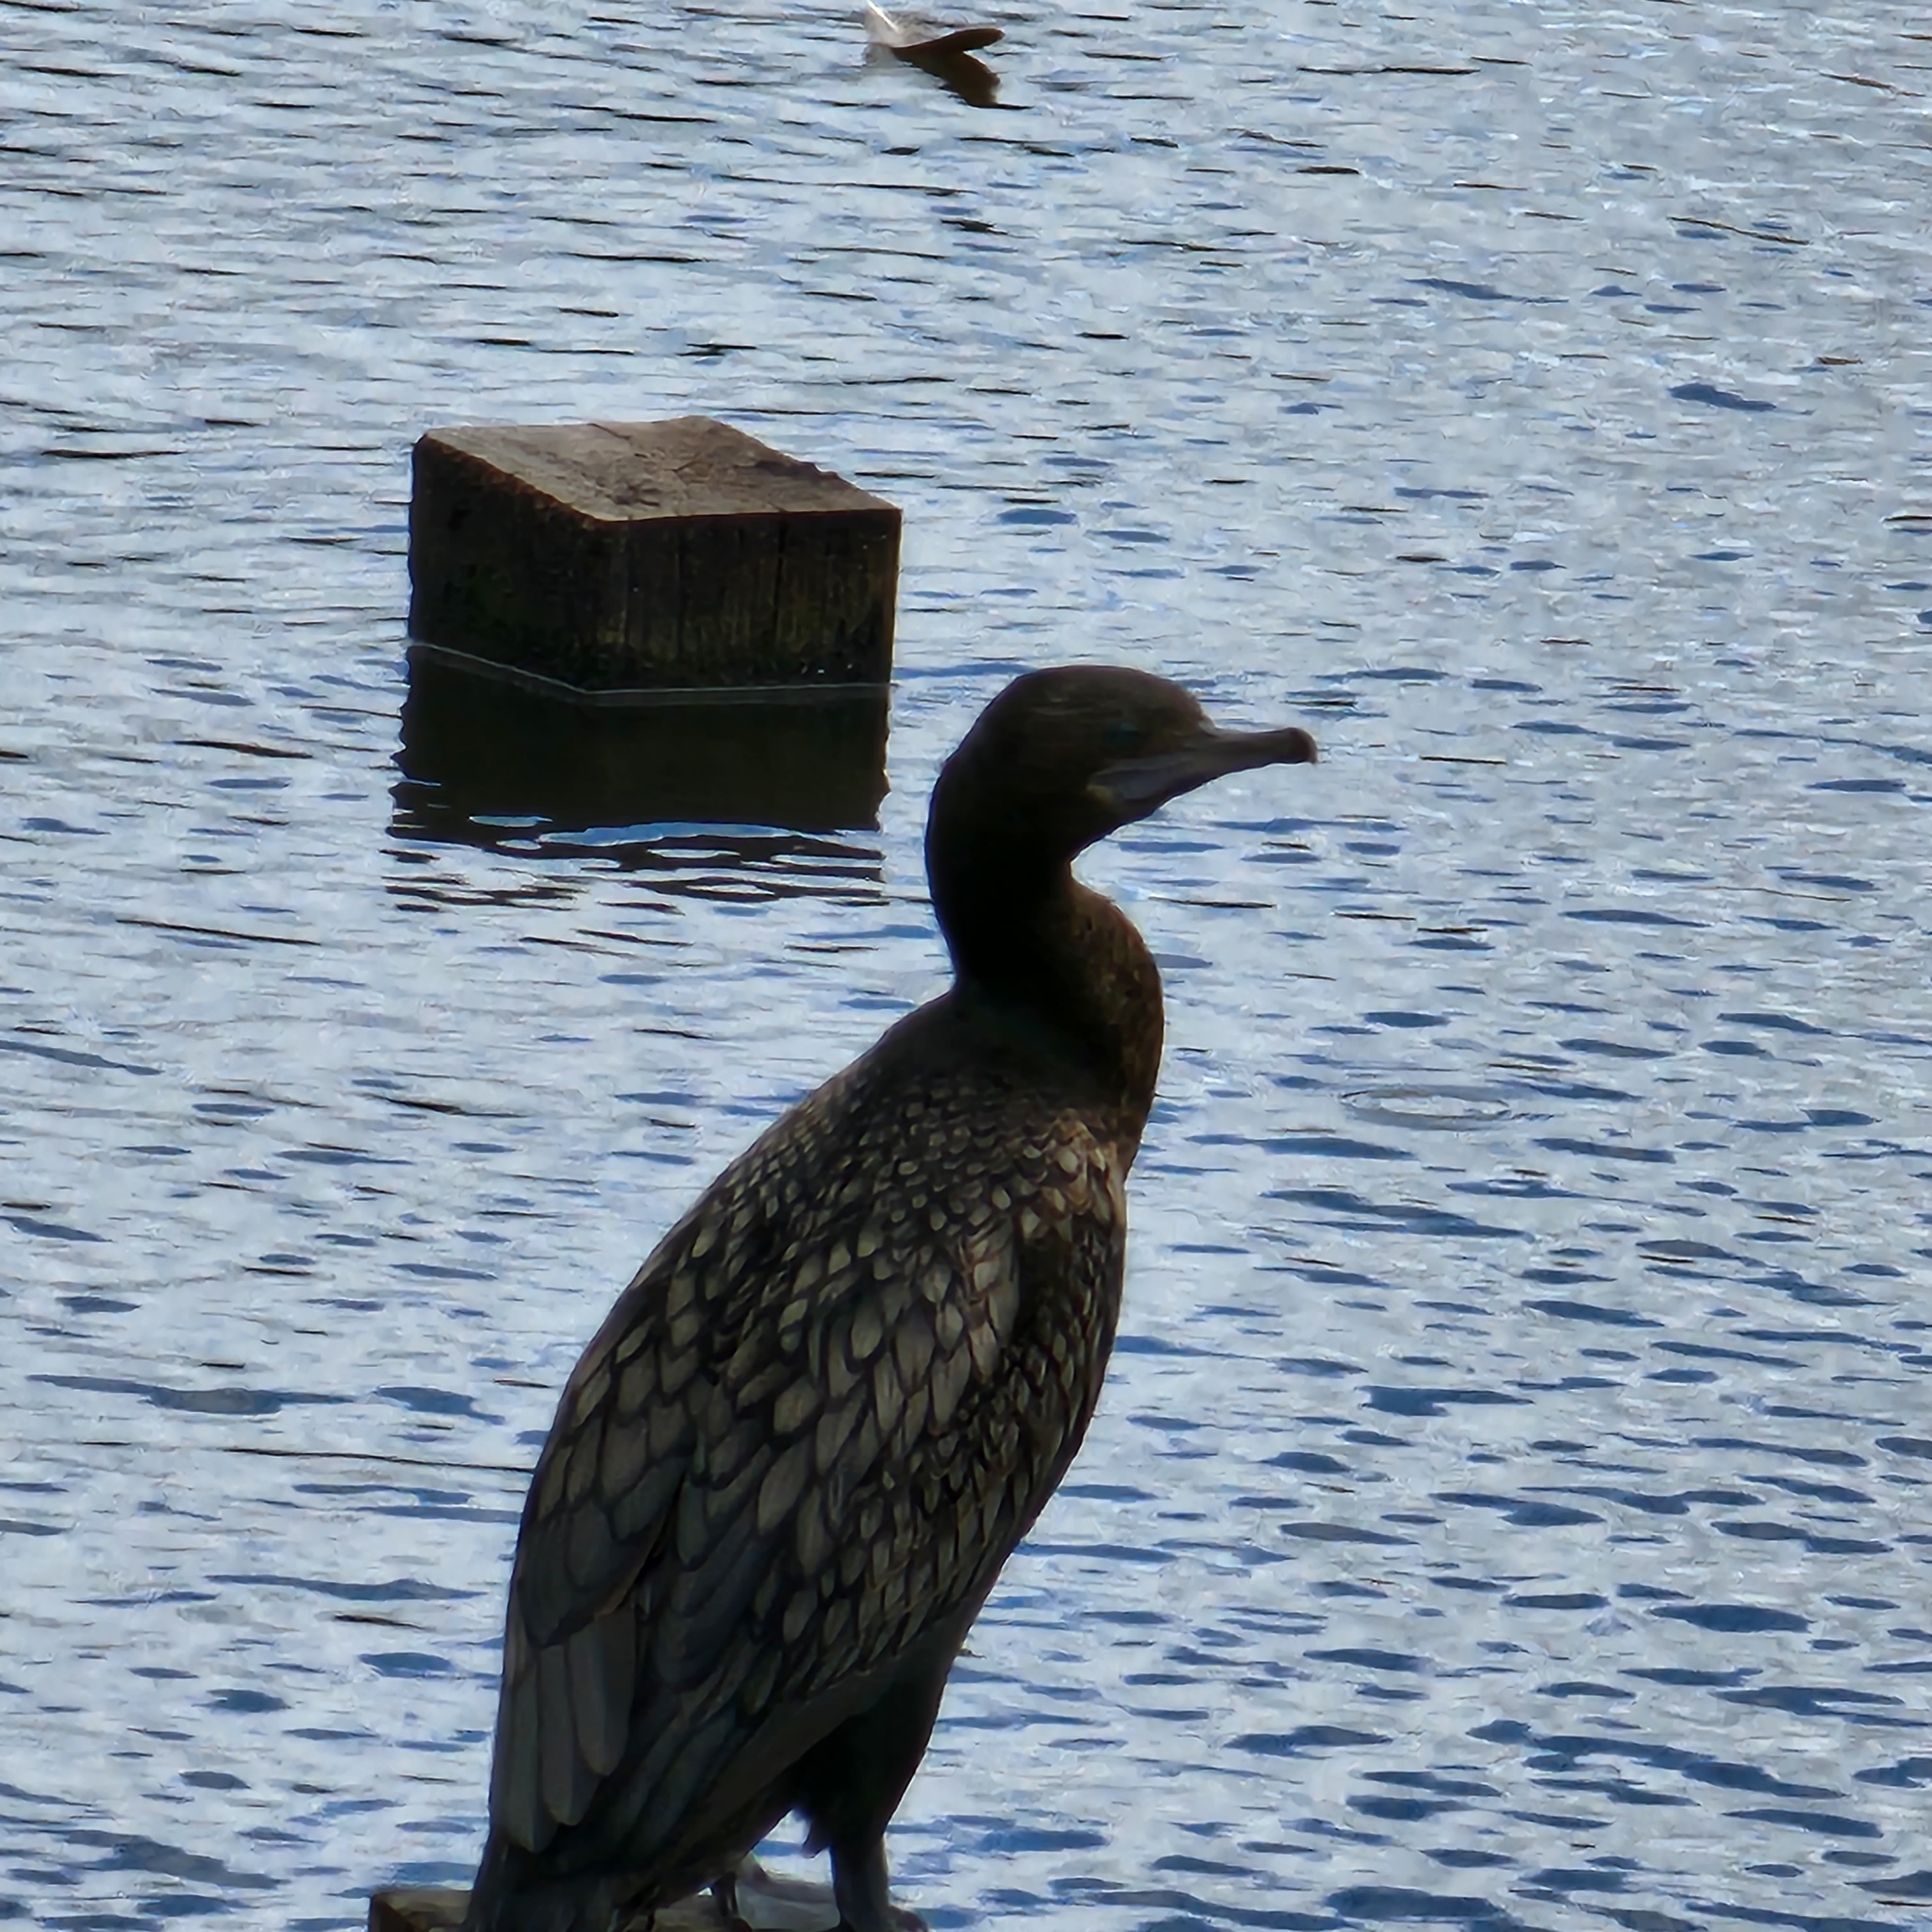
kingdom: Animalia
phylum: Chordata
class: Aves
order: Suliformes
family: Phalacrocoracidae
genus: Phalacrocorax
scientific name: Phalacrocorax sulcirostris
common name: Little black cormorant
